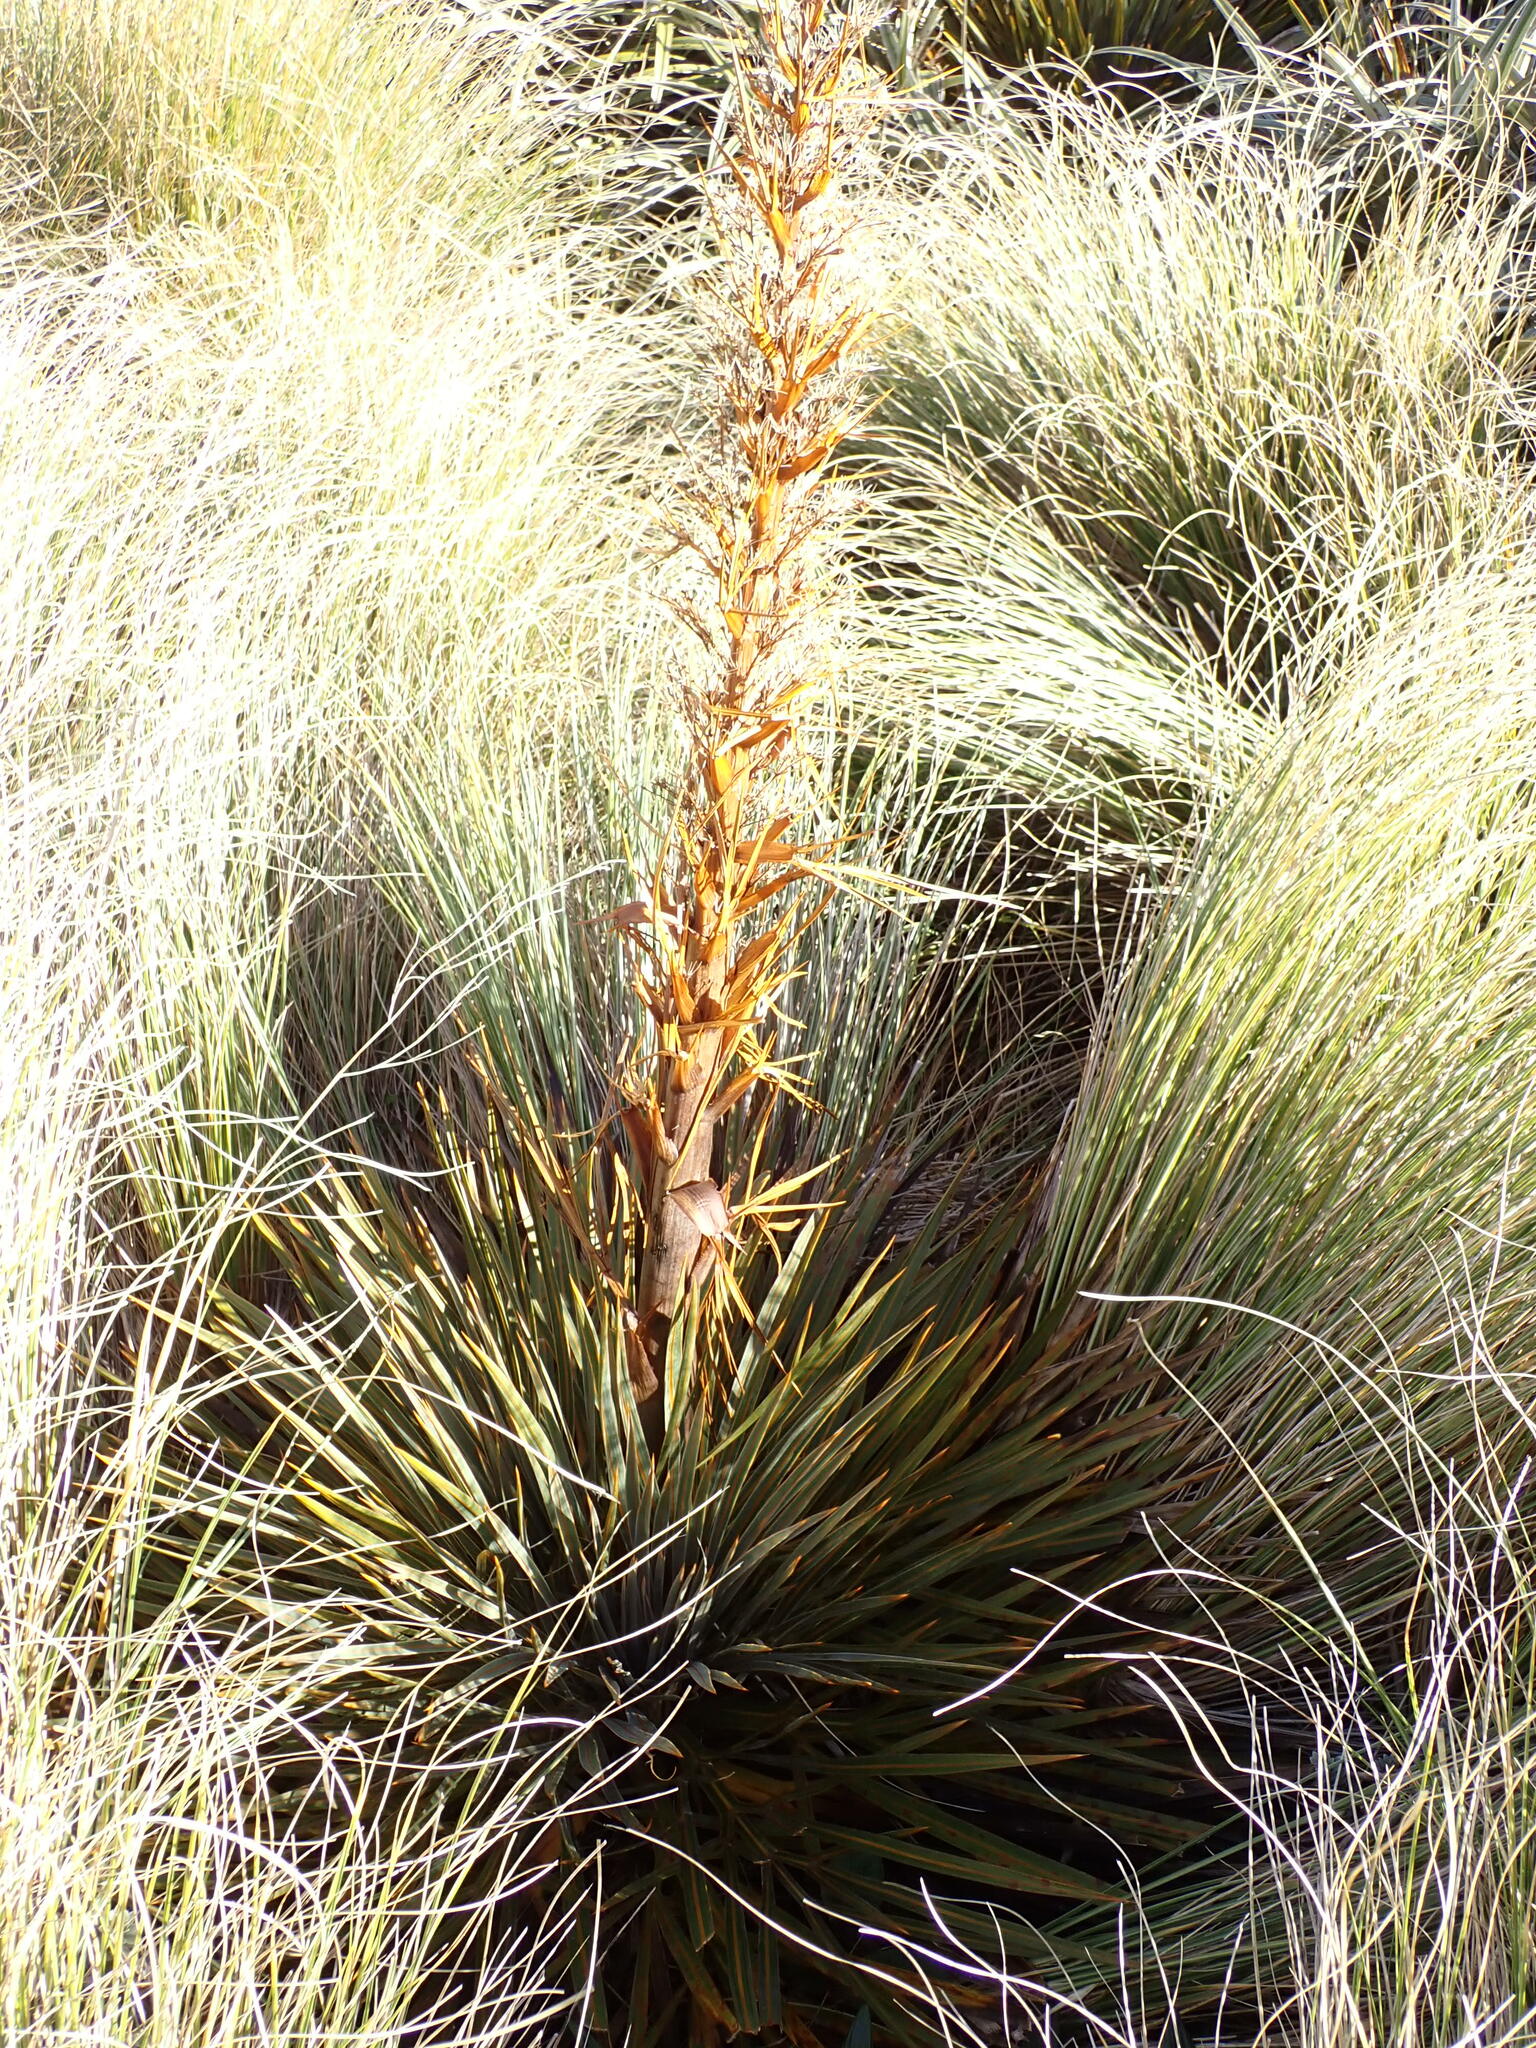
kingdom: Plantae
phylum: Tracheophyta
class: Magnoliopsida
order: Apiales
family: Apiaceae
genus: Aciphylla
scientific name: Aciphylla colensoi
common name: Colenso's spaniard
